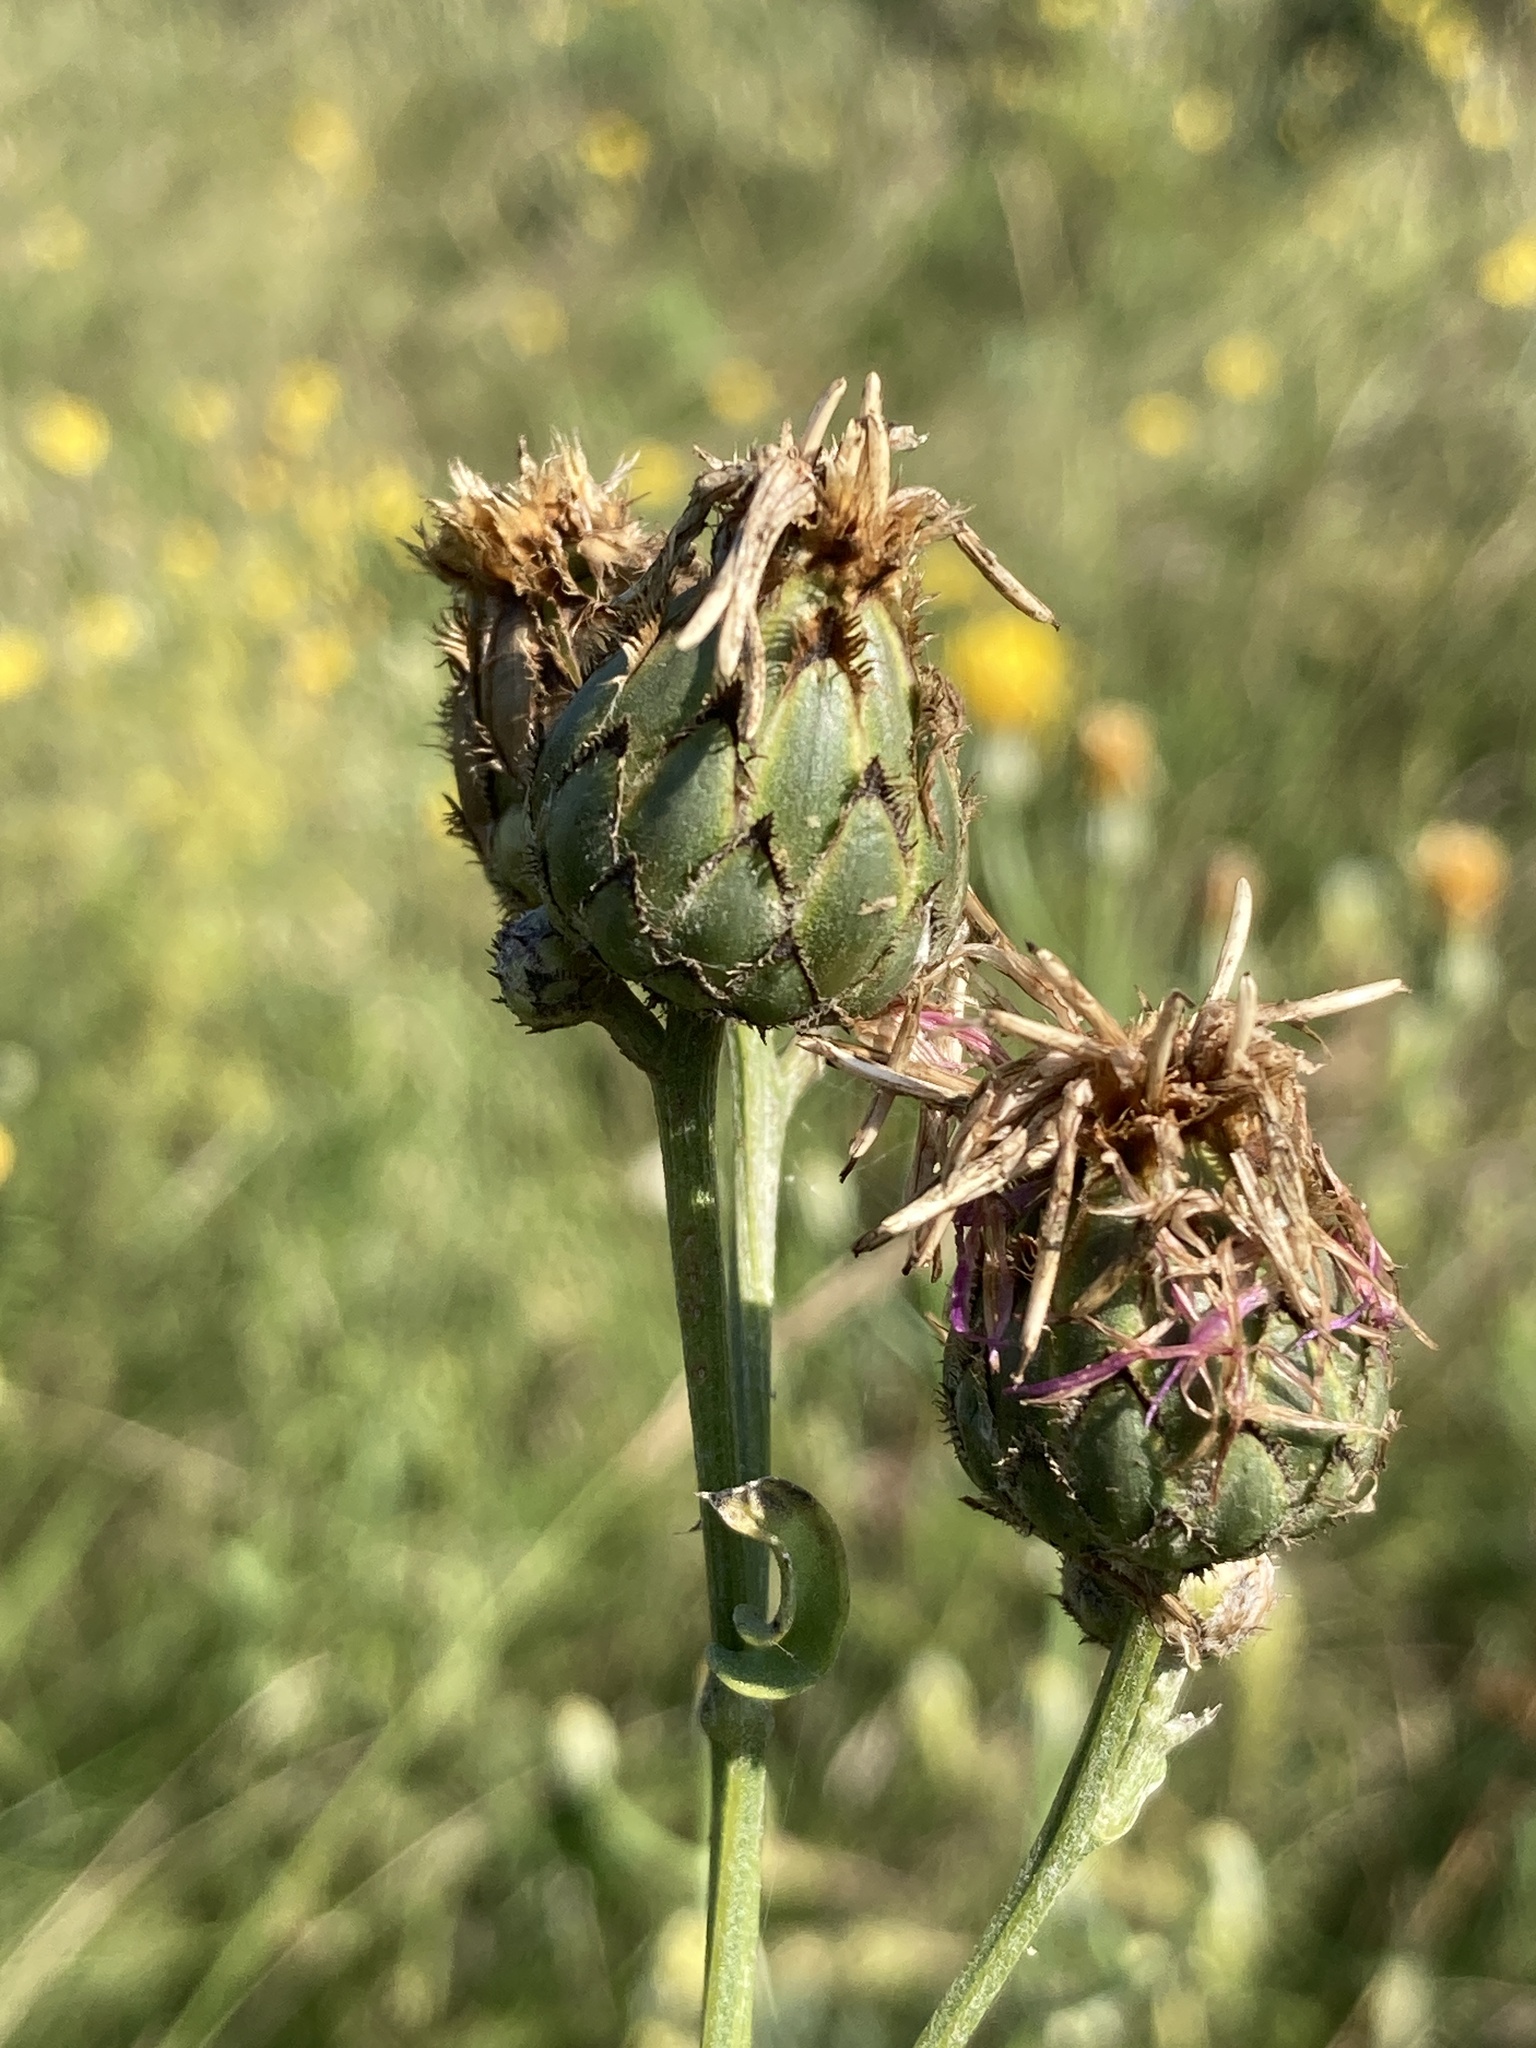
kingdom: Plantae
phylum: Tracheophyta
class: Magnoliopsida
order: Asterales
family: Asteraceae
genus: Centaurea
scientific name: Centaurea scabiosa
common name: Greater knapweed
